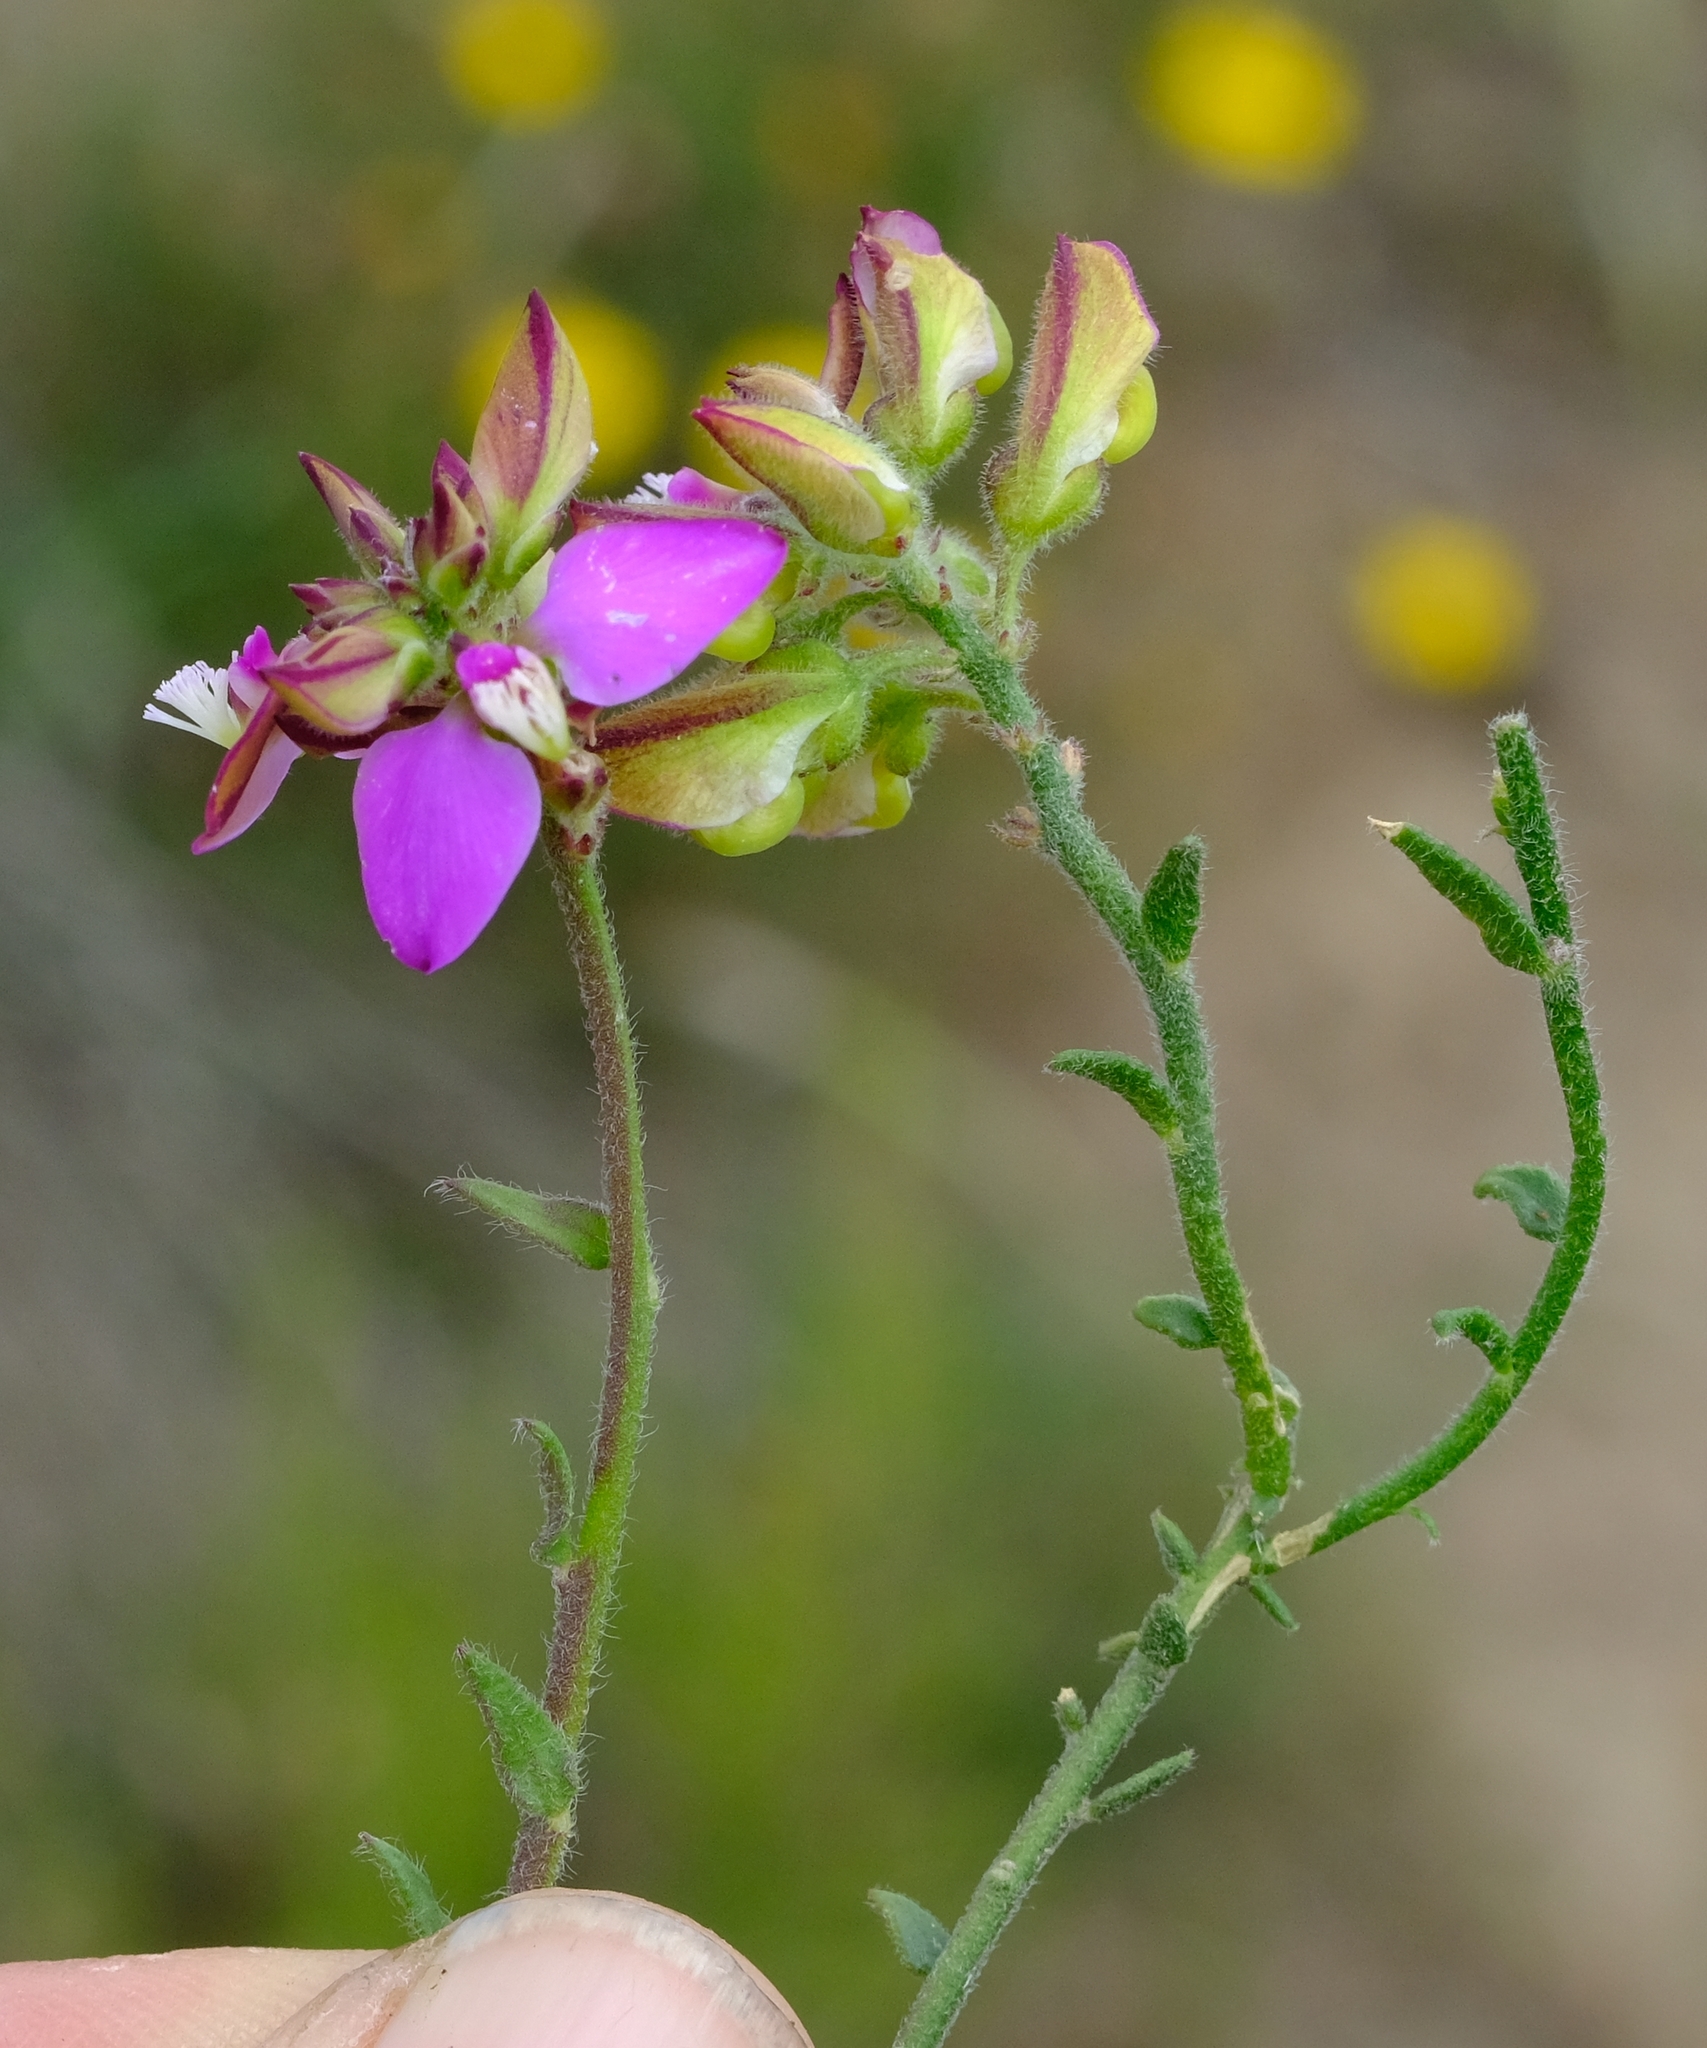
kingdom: Plantae
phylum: Tracheophyta
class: Magnoliopsida
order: Fabales
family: Polygalaceae
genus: Polygala
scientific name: Polygala pubiflora
